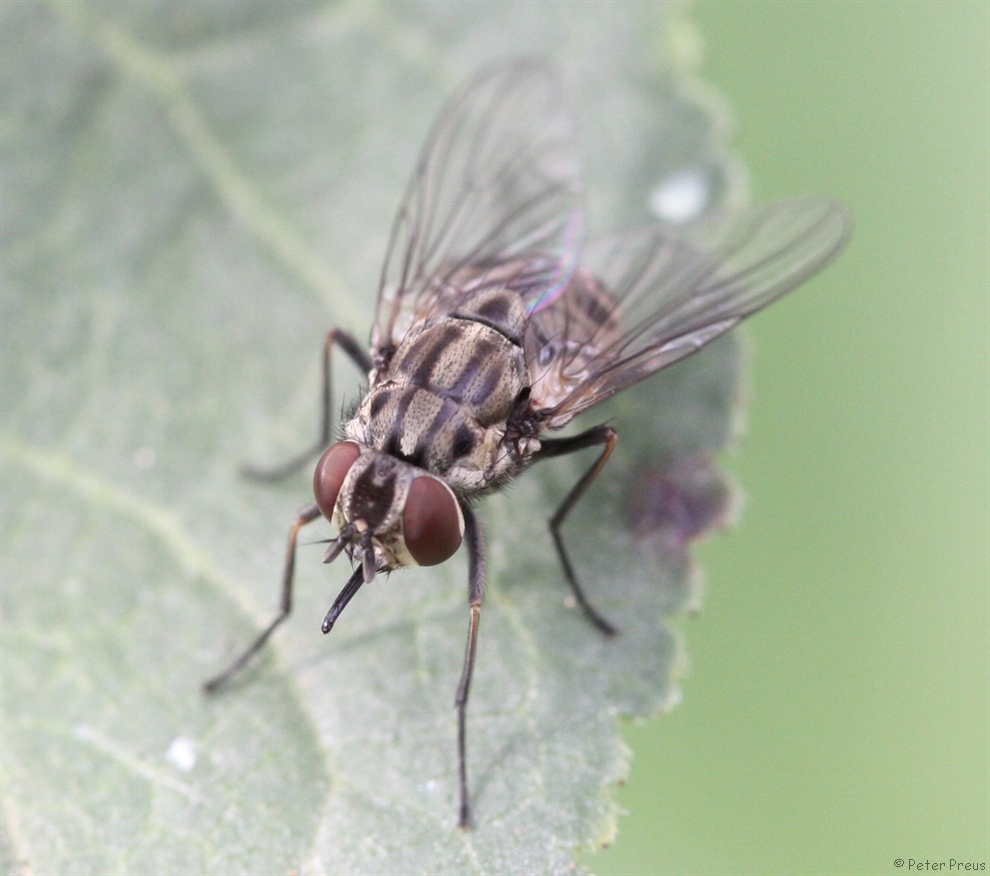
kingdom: Animalia
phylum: Arthropoda
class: Insecta
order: Diptera
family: Muscidae
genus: Stomoxys
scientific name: Stomoxys calcitrans
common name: Stable fly
